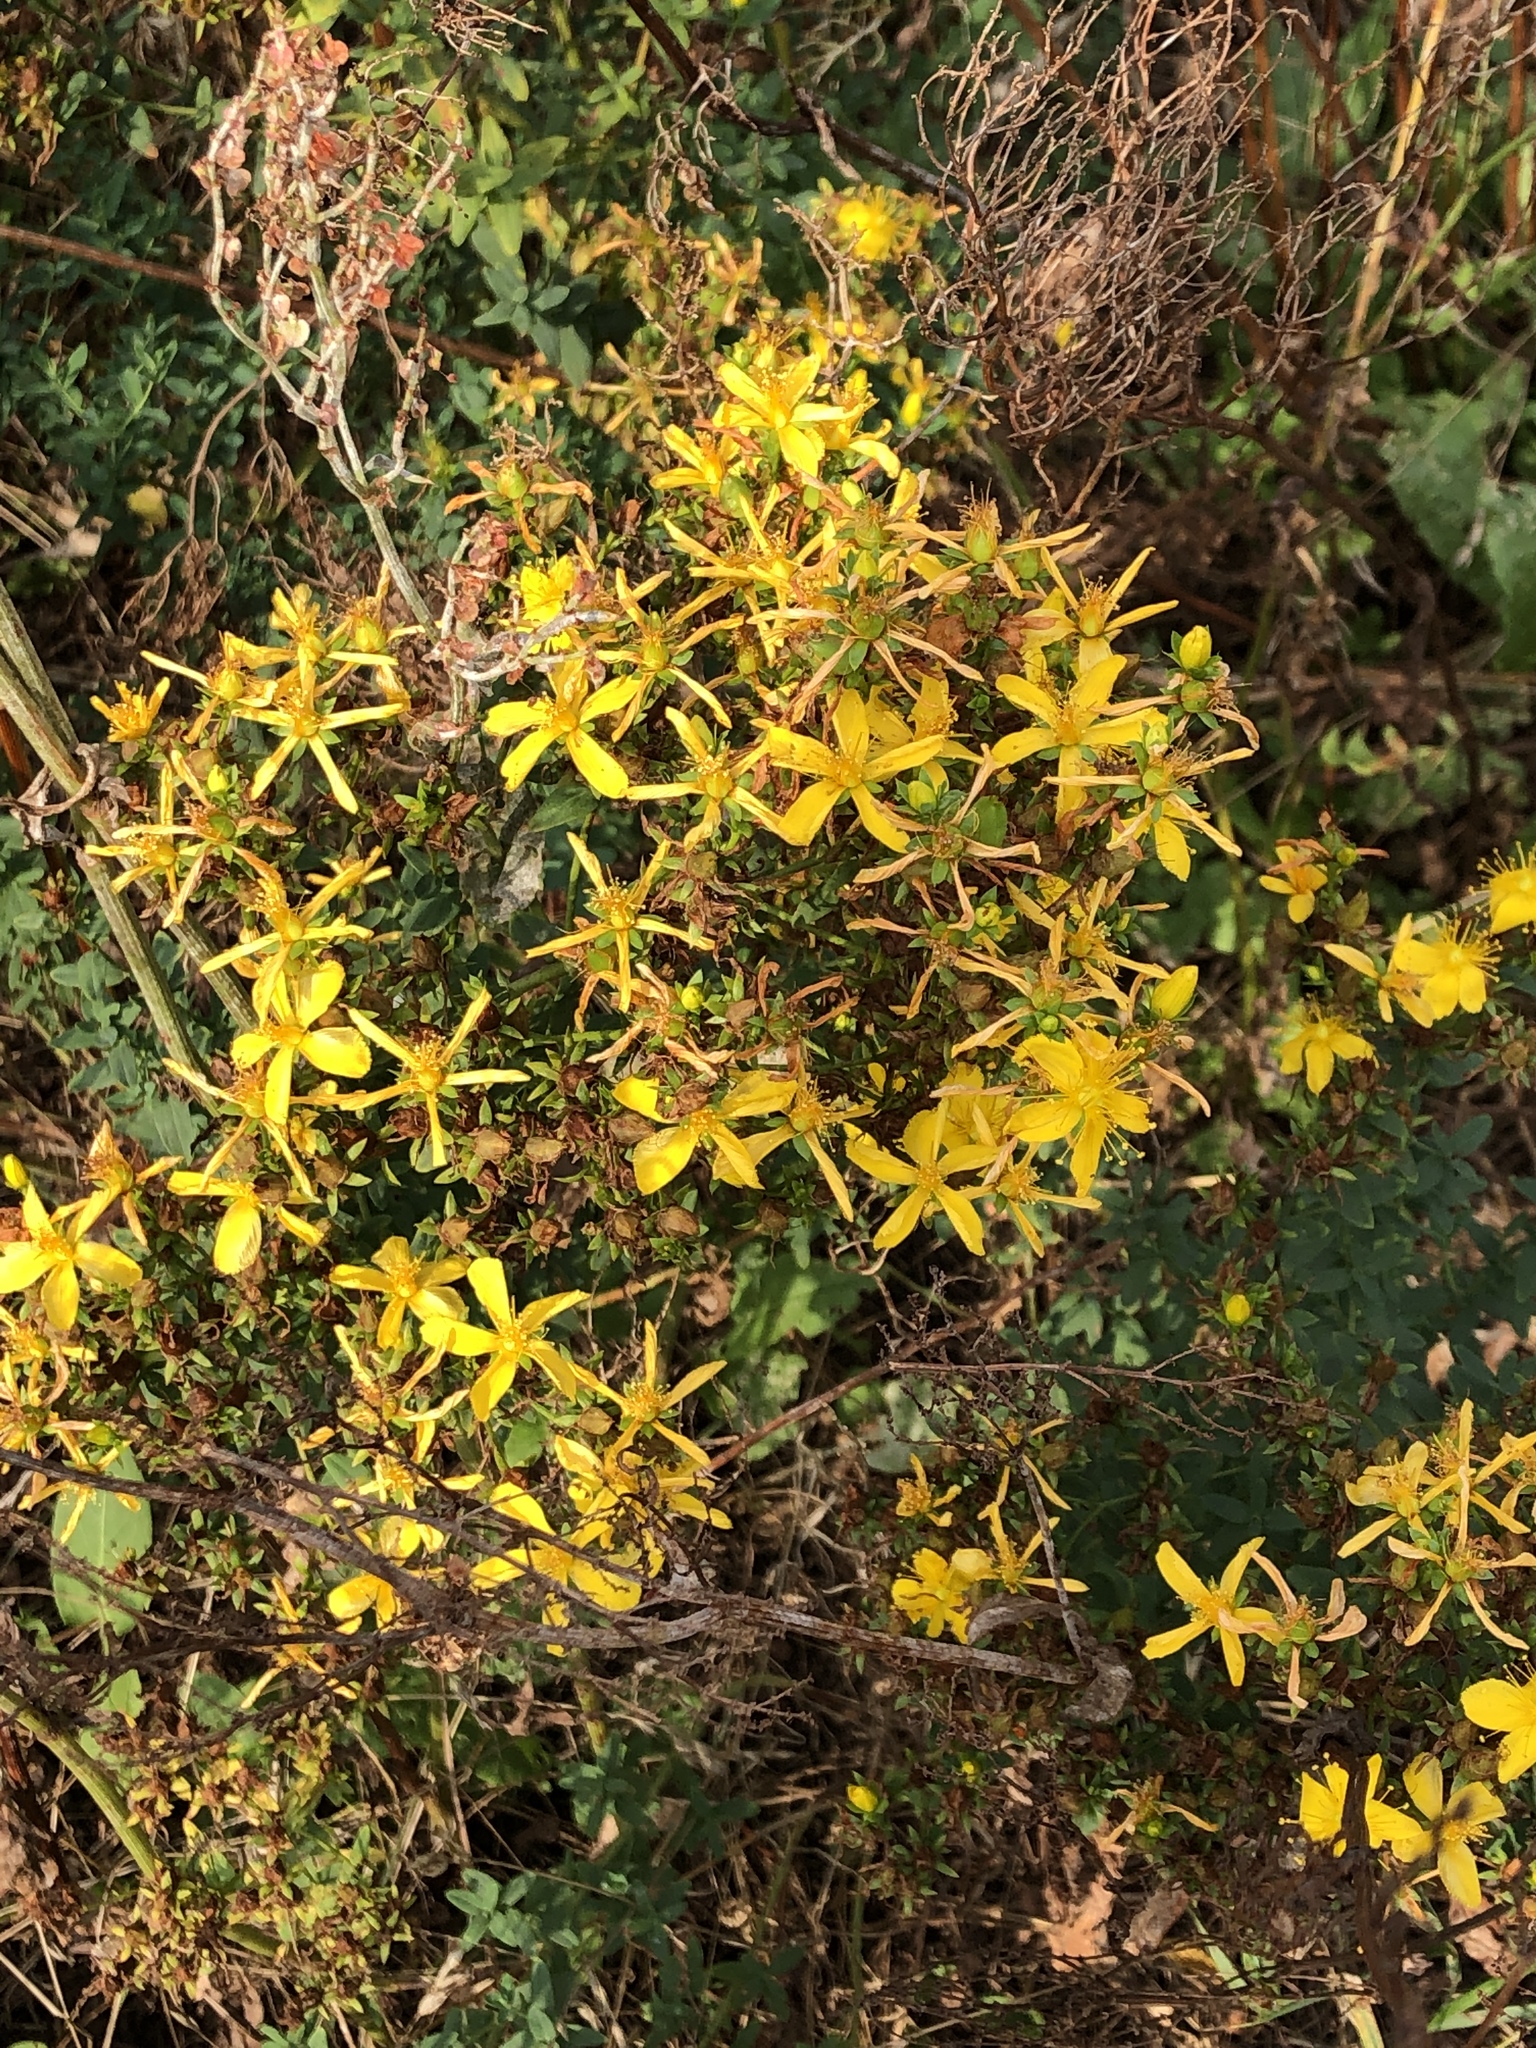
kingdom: Plantae
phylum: Tracheophyta
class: Magnoliopsida
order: Malpighiales
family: Hypericaceae
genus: Hypericum
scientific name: Hypericum perforatum
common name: Common st. johnswort
